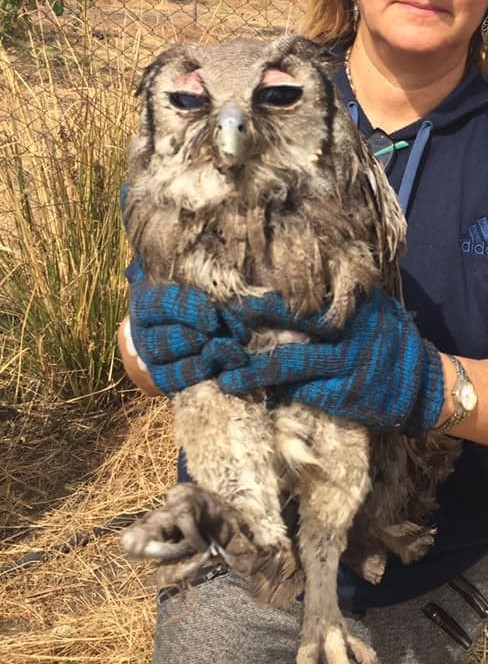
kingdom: Animalia
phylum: Chordata
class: Aves
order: Strigiformes
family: Strigidae
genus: Bubo
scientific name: Bubo lacteus
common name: Verreaux's eagle-owl
